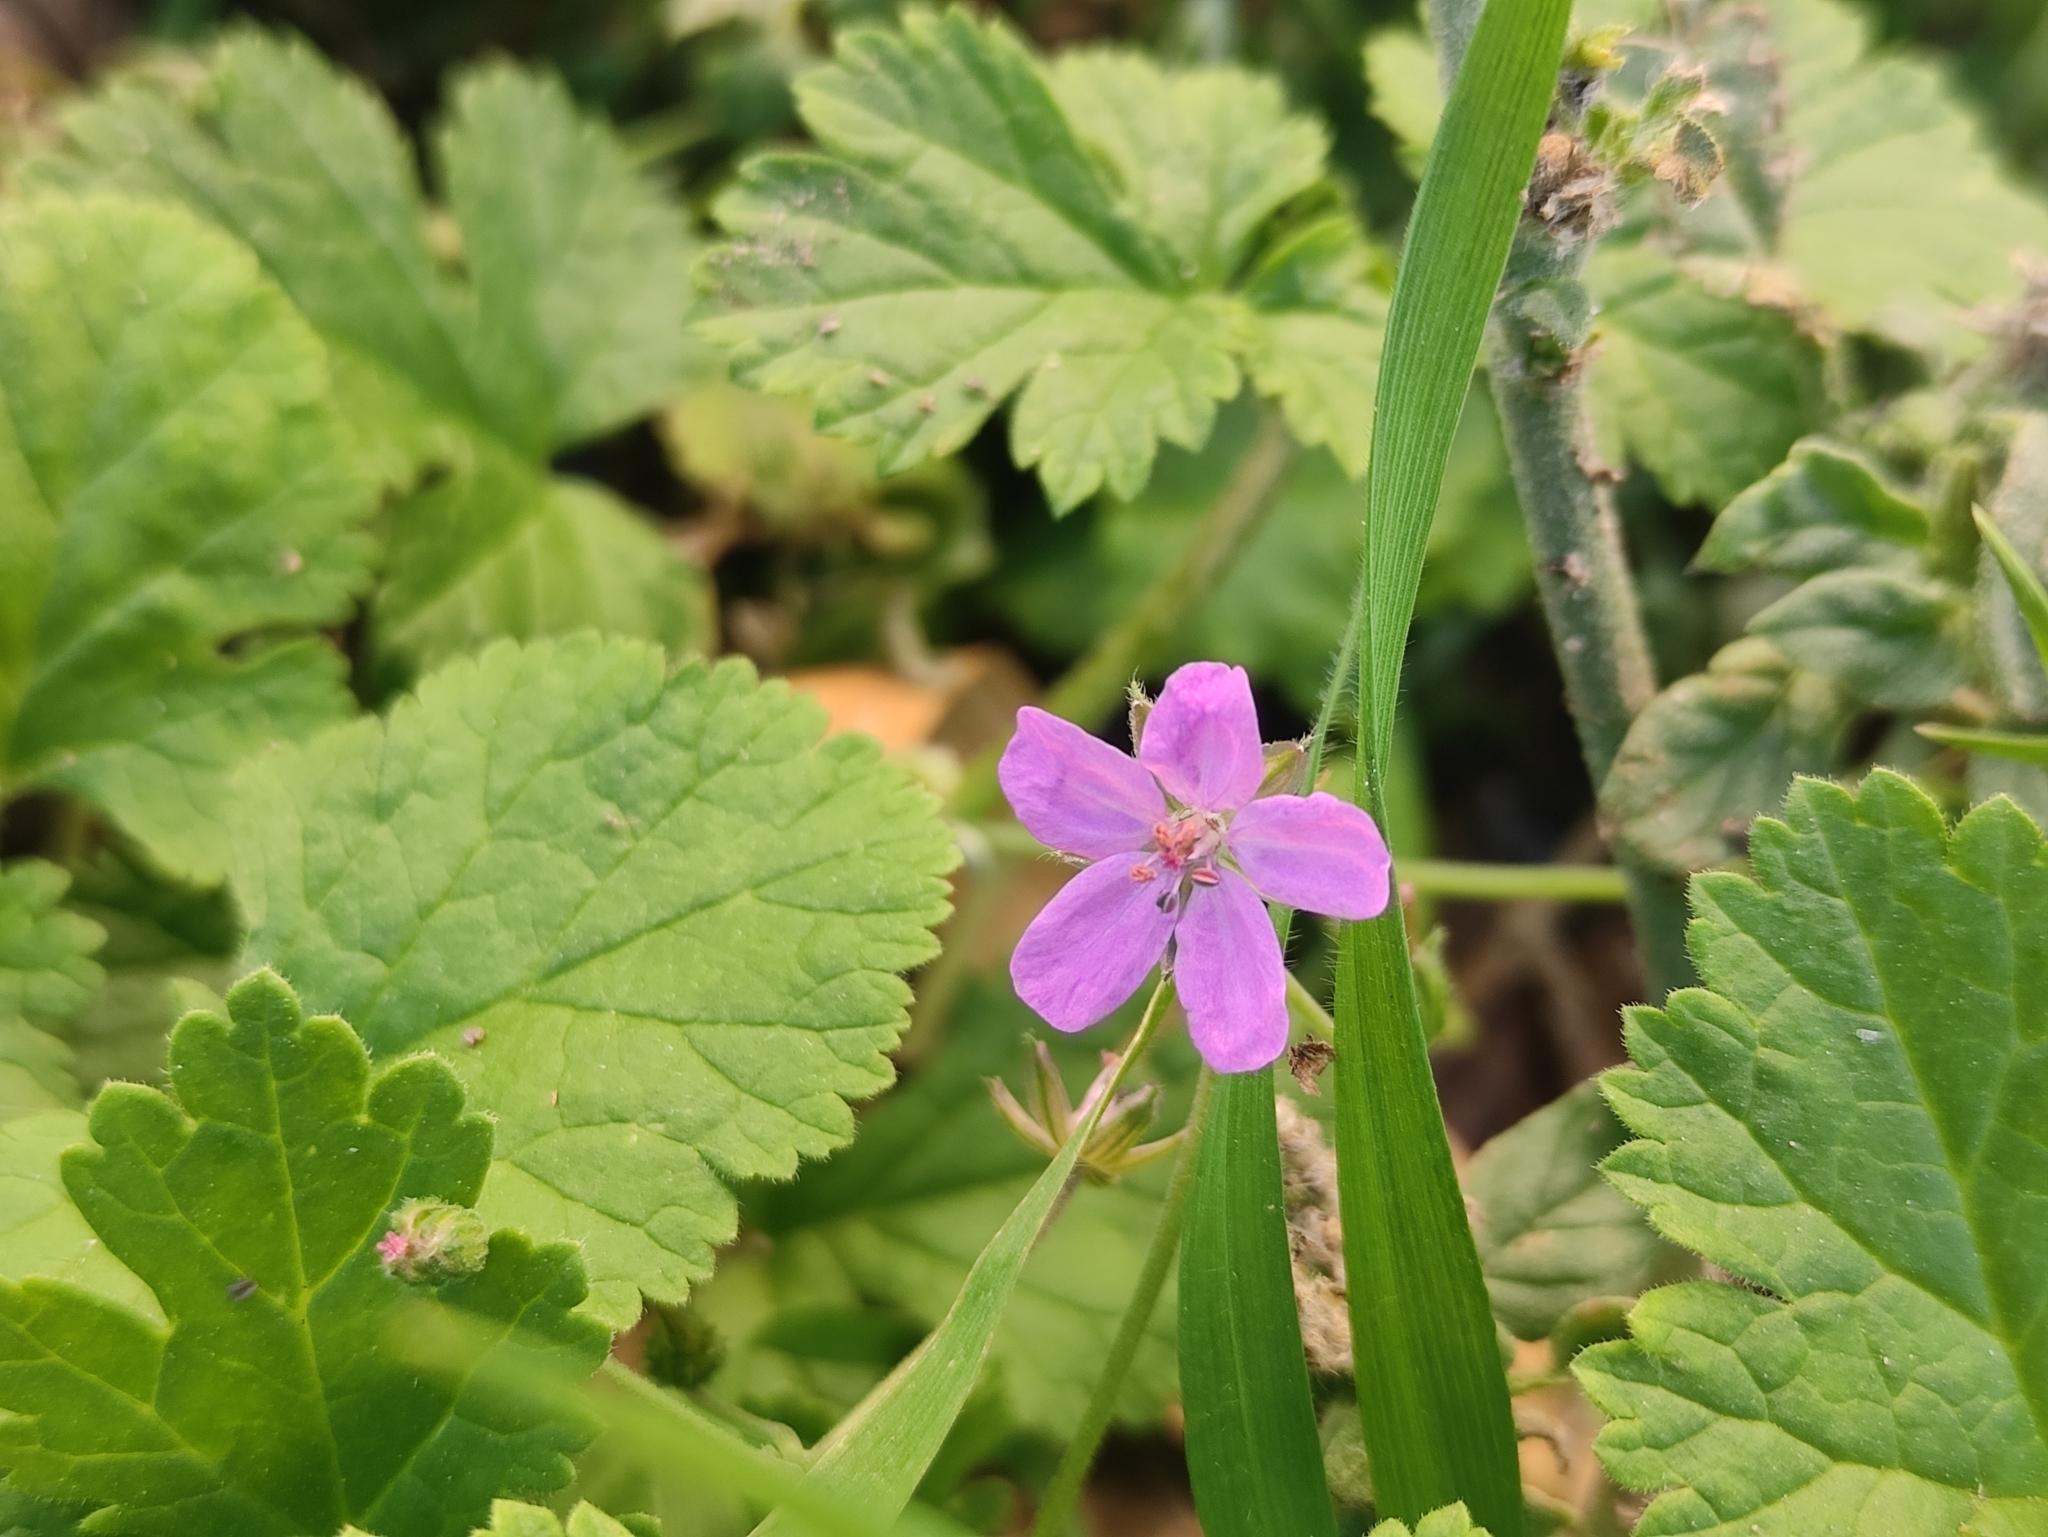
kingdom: Plantae
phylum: Tracheophyta
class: Magnoliopsida
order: Geraniales
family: Geraniaceae
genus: Erodium
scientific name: Erodium chium
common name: Three-lobed stork's-bill
